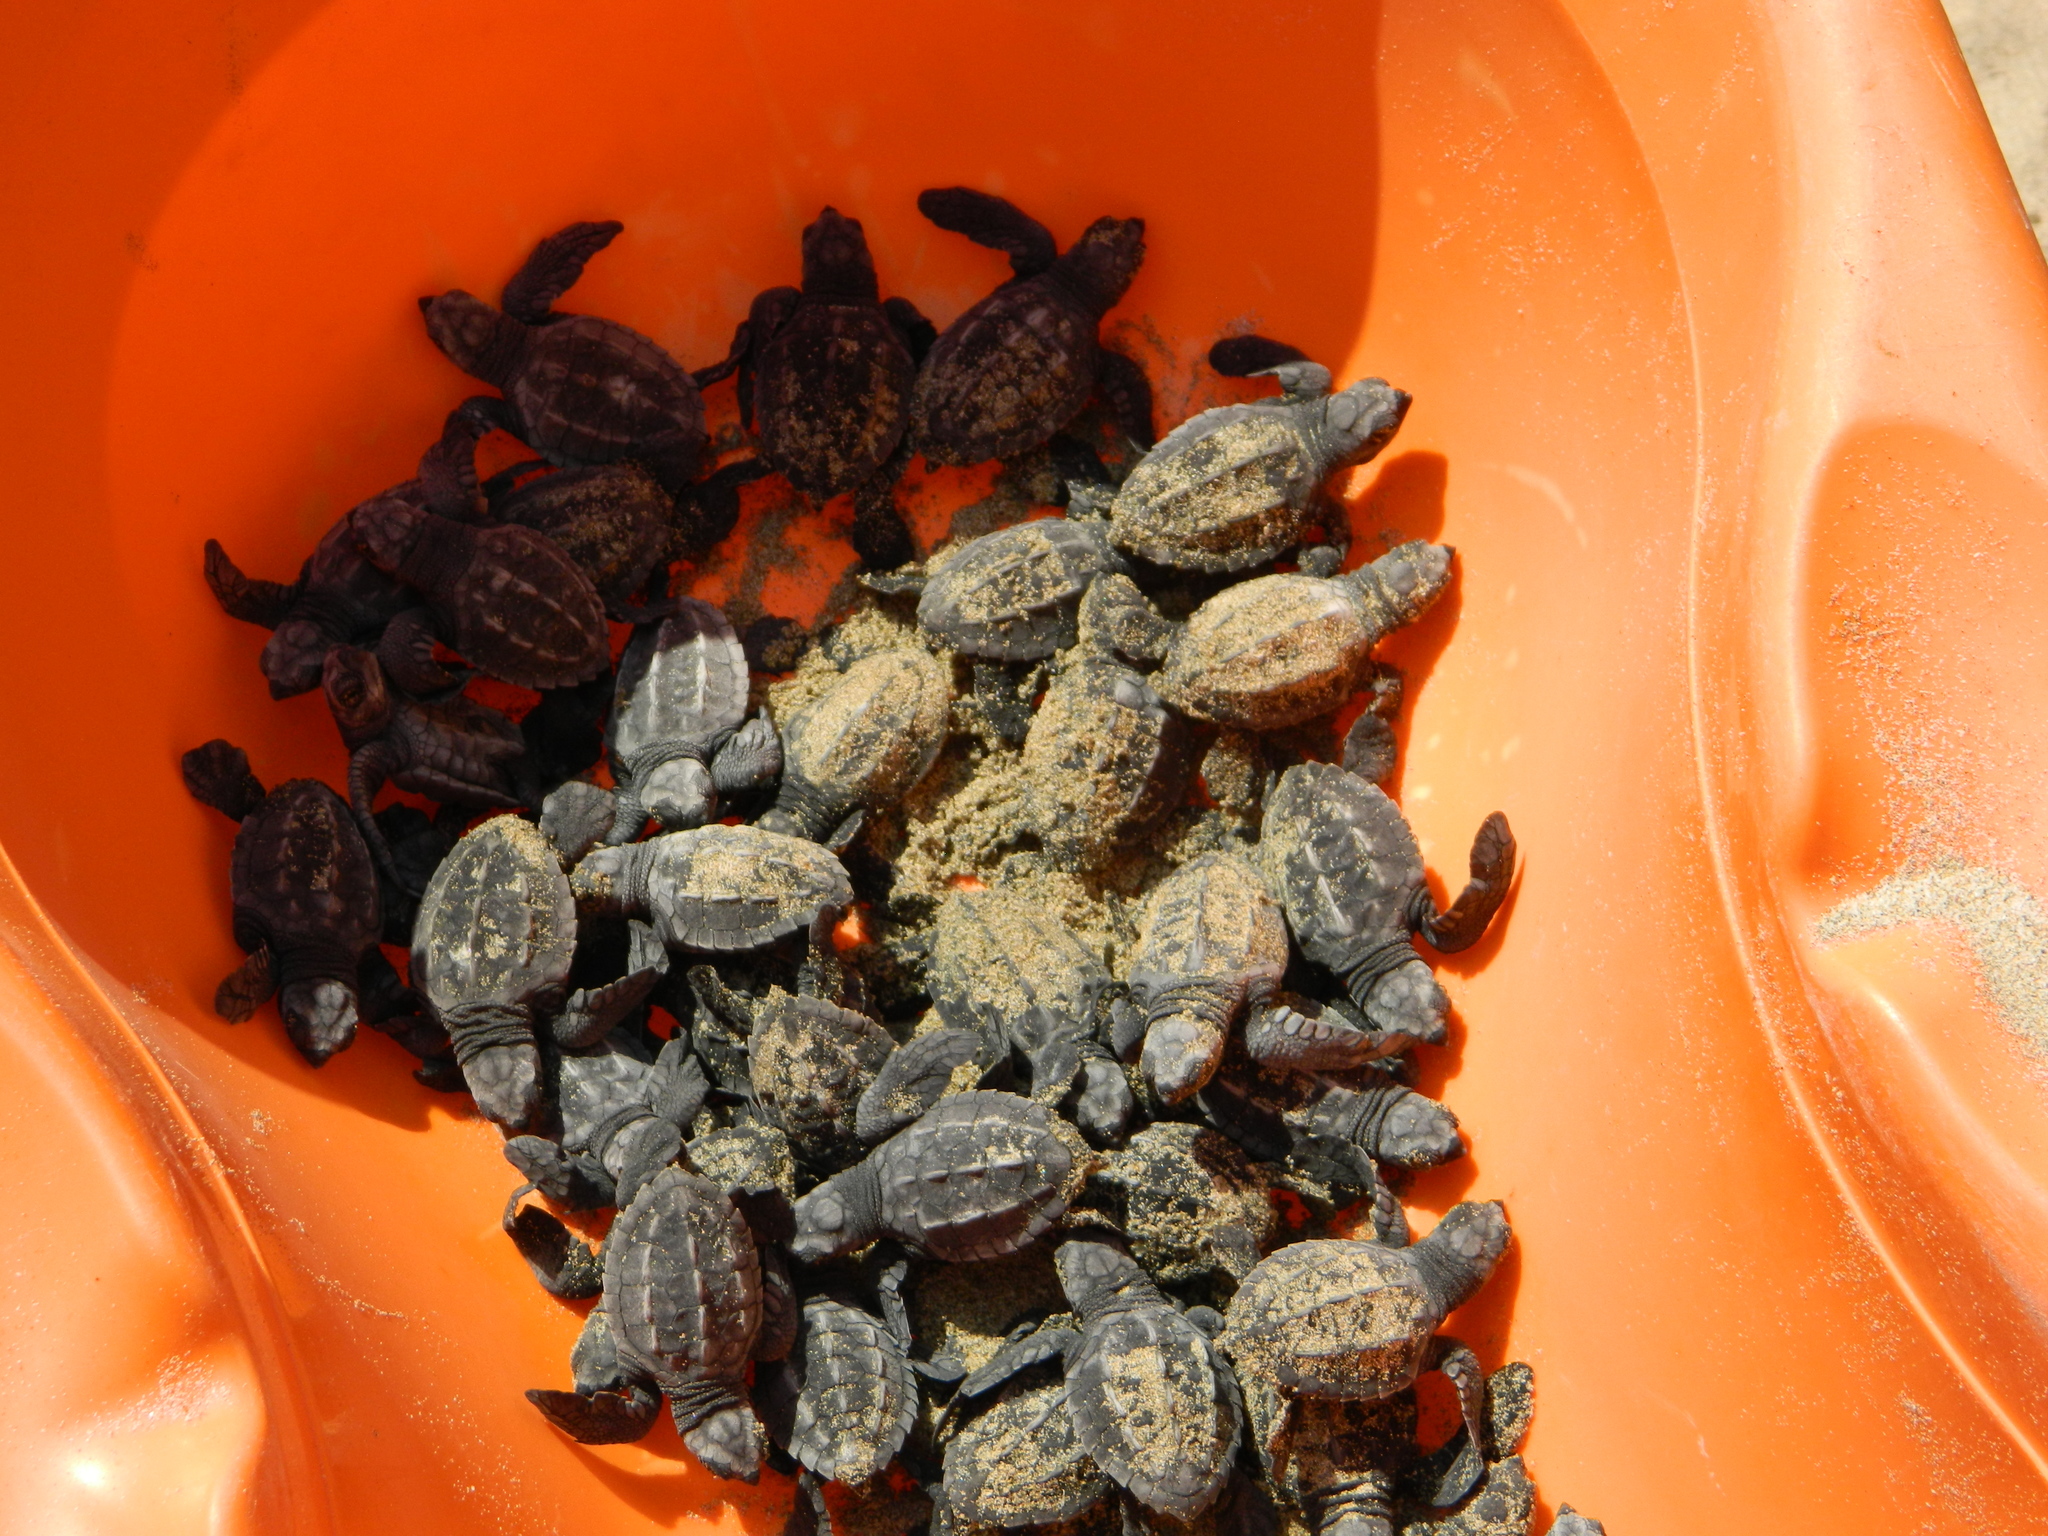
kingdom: Animalia
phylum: Chordata
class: Testudines
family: Cheloniidae
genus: Lepidochelys
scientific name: Lepidochelys olivacea
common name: Olive ridley
